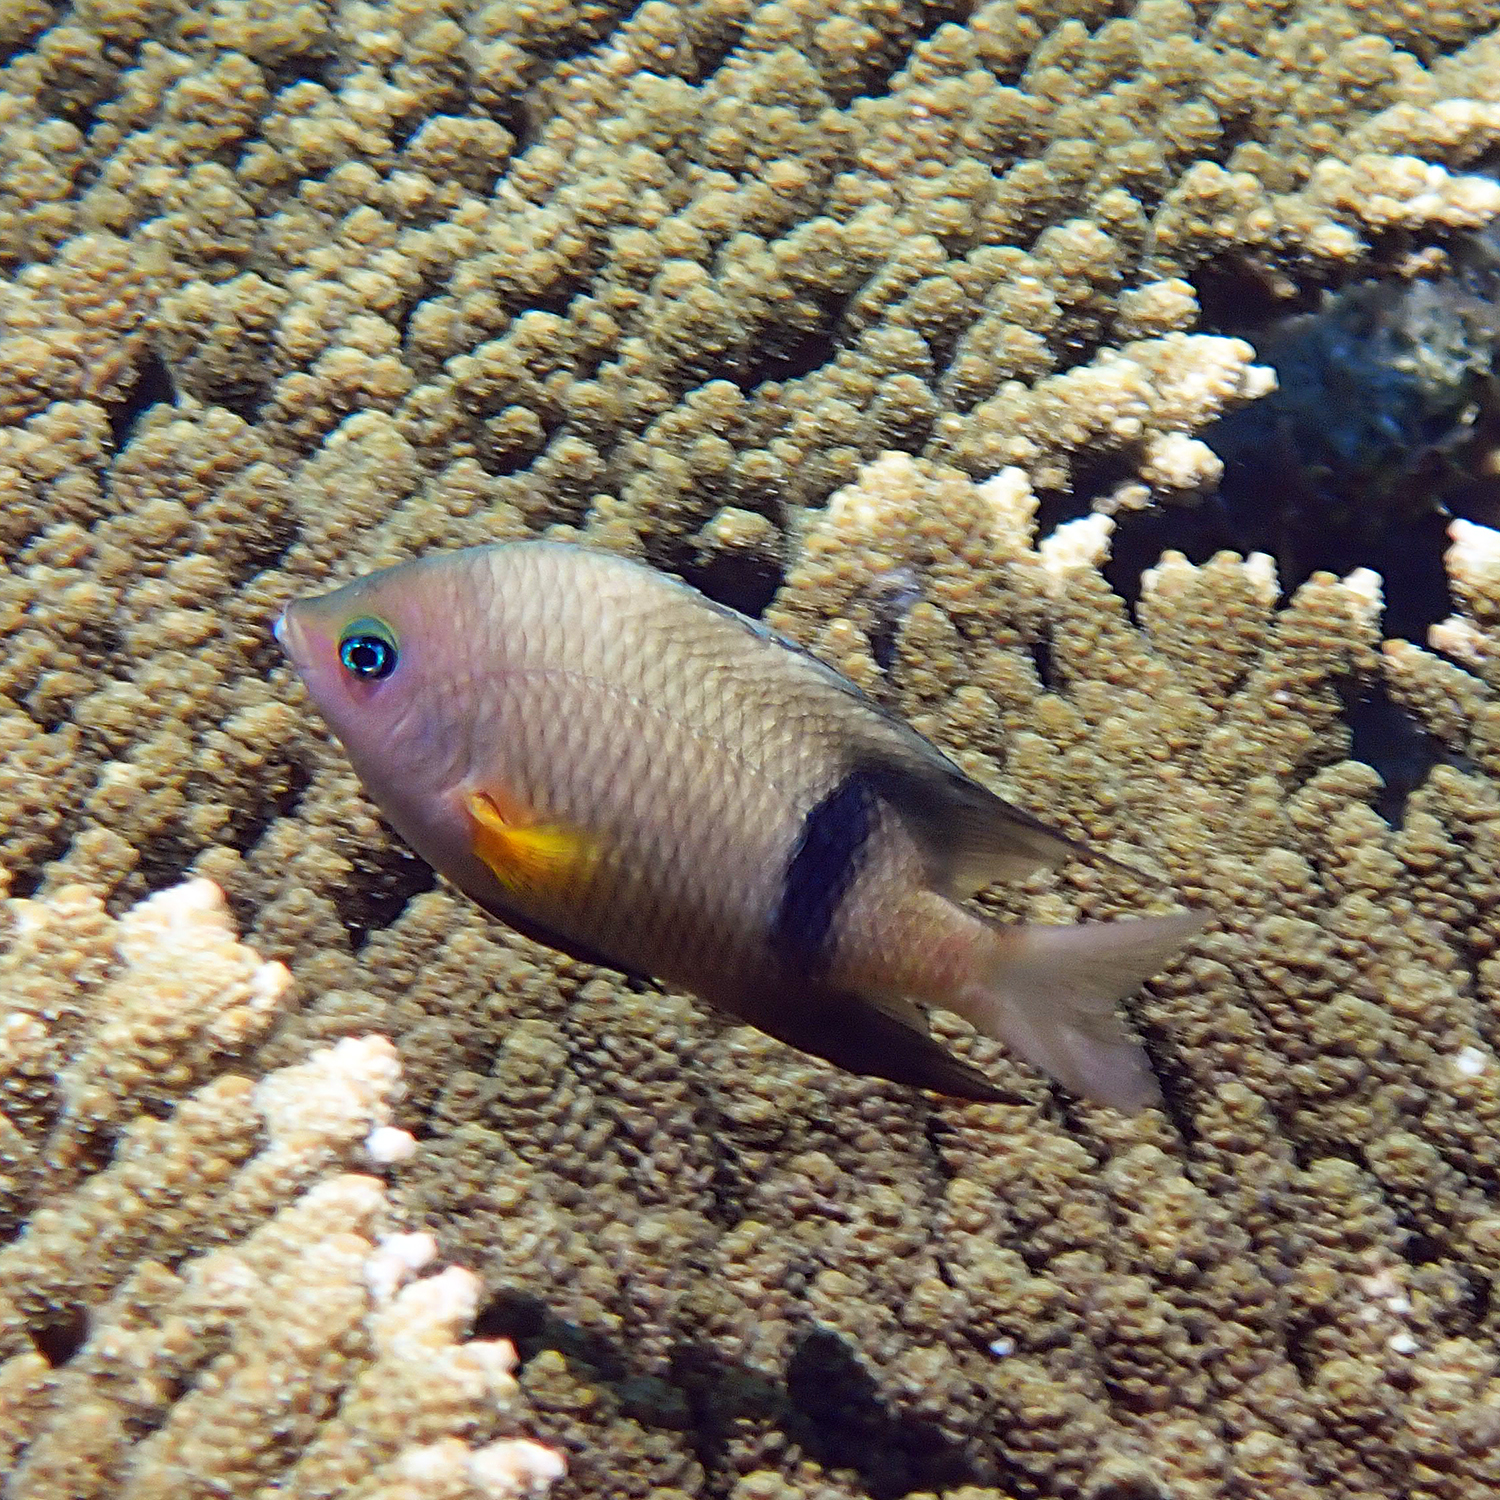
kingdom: Animalia
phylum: Chordata
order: Perciformes
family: Pomacentridae
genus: Plectroglyphidodon
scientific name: Plectroglyphidodon dickii
